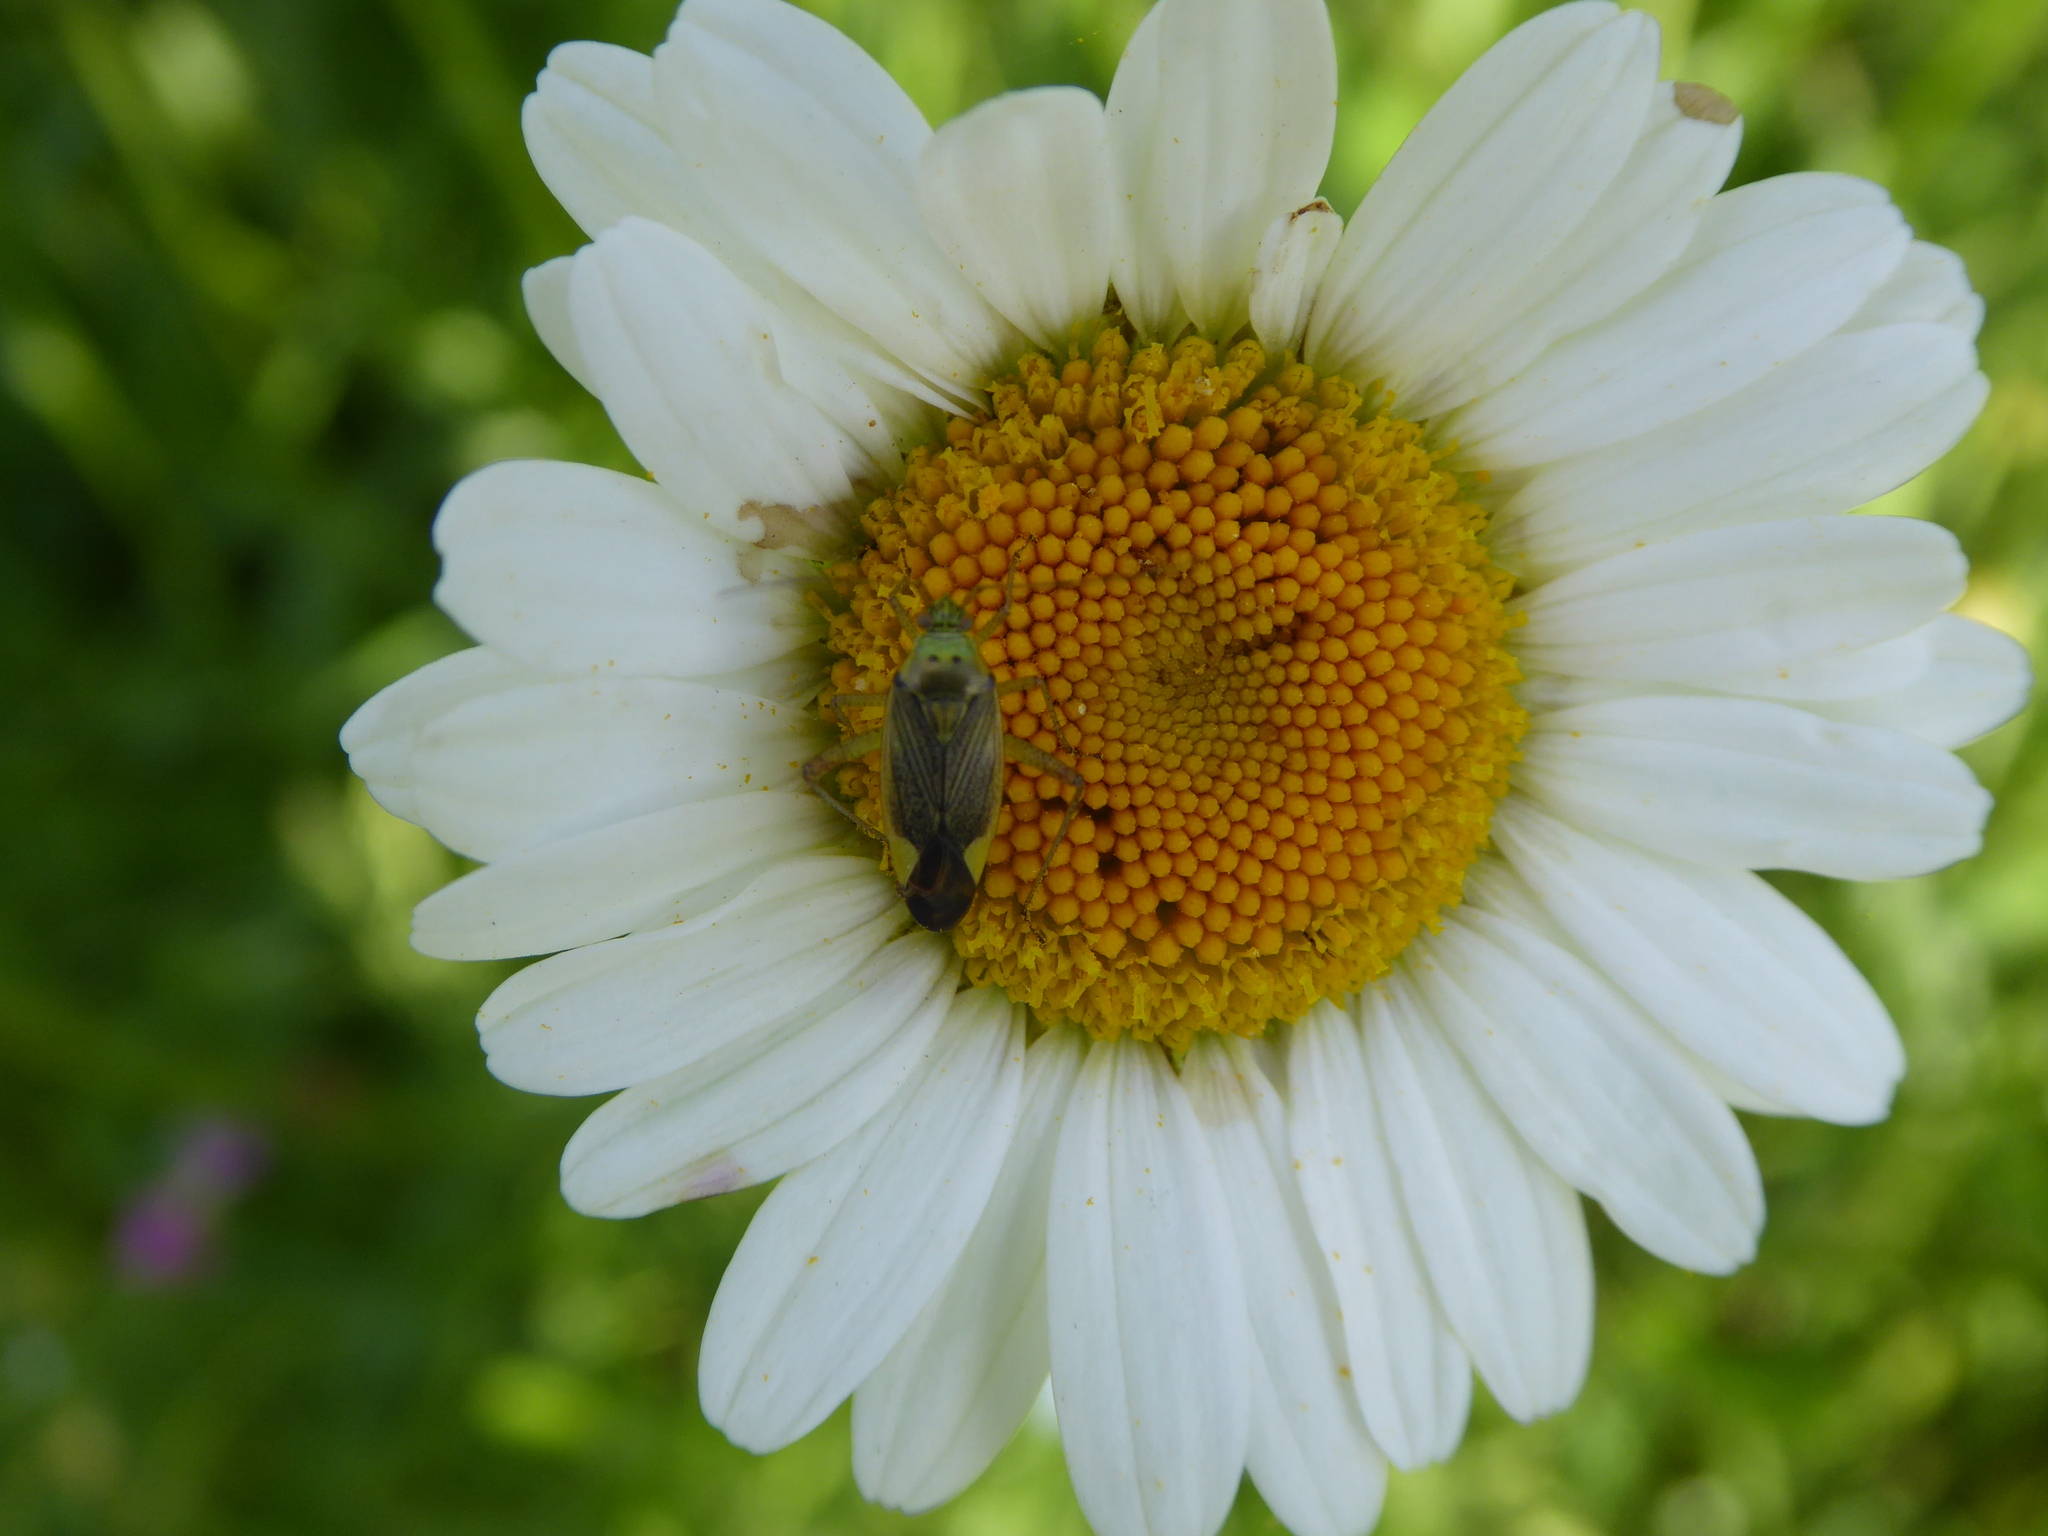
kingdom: Animalia
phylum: Arthropoda
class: Insecta
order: Hemiptera
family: Miridae
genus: Closterotomus
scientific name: Closterotomus trivialis
